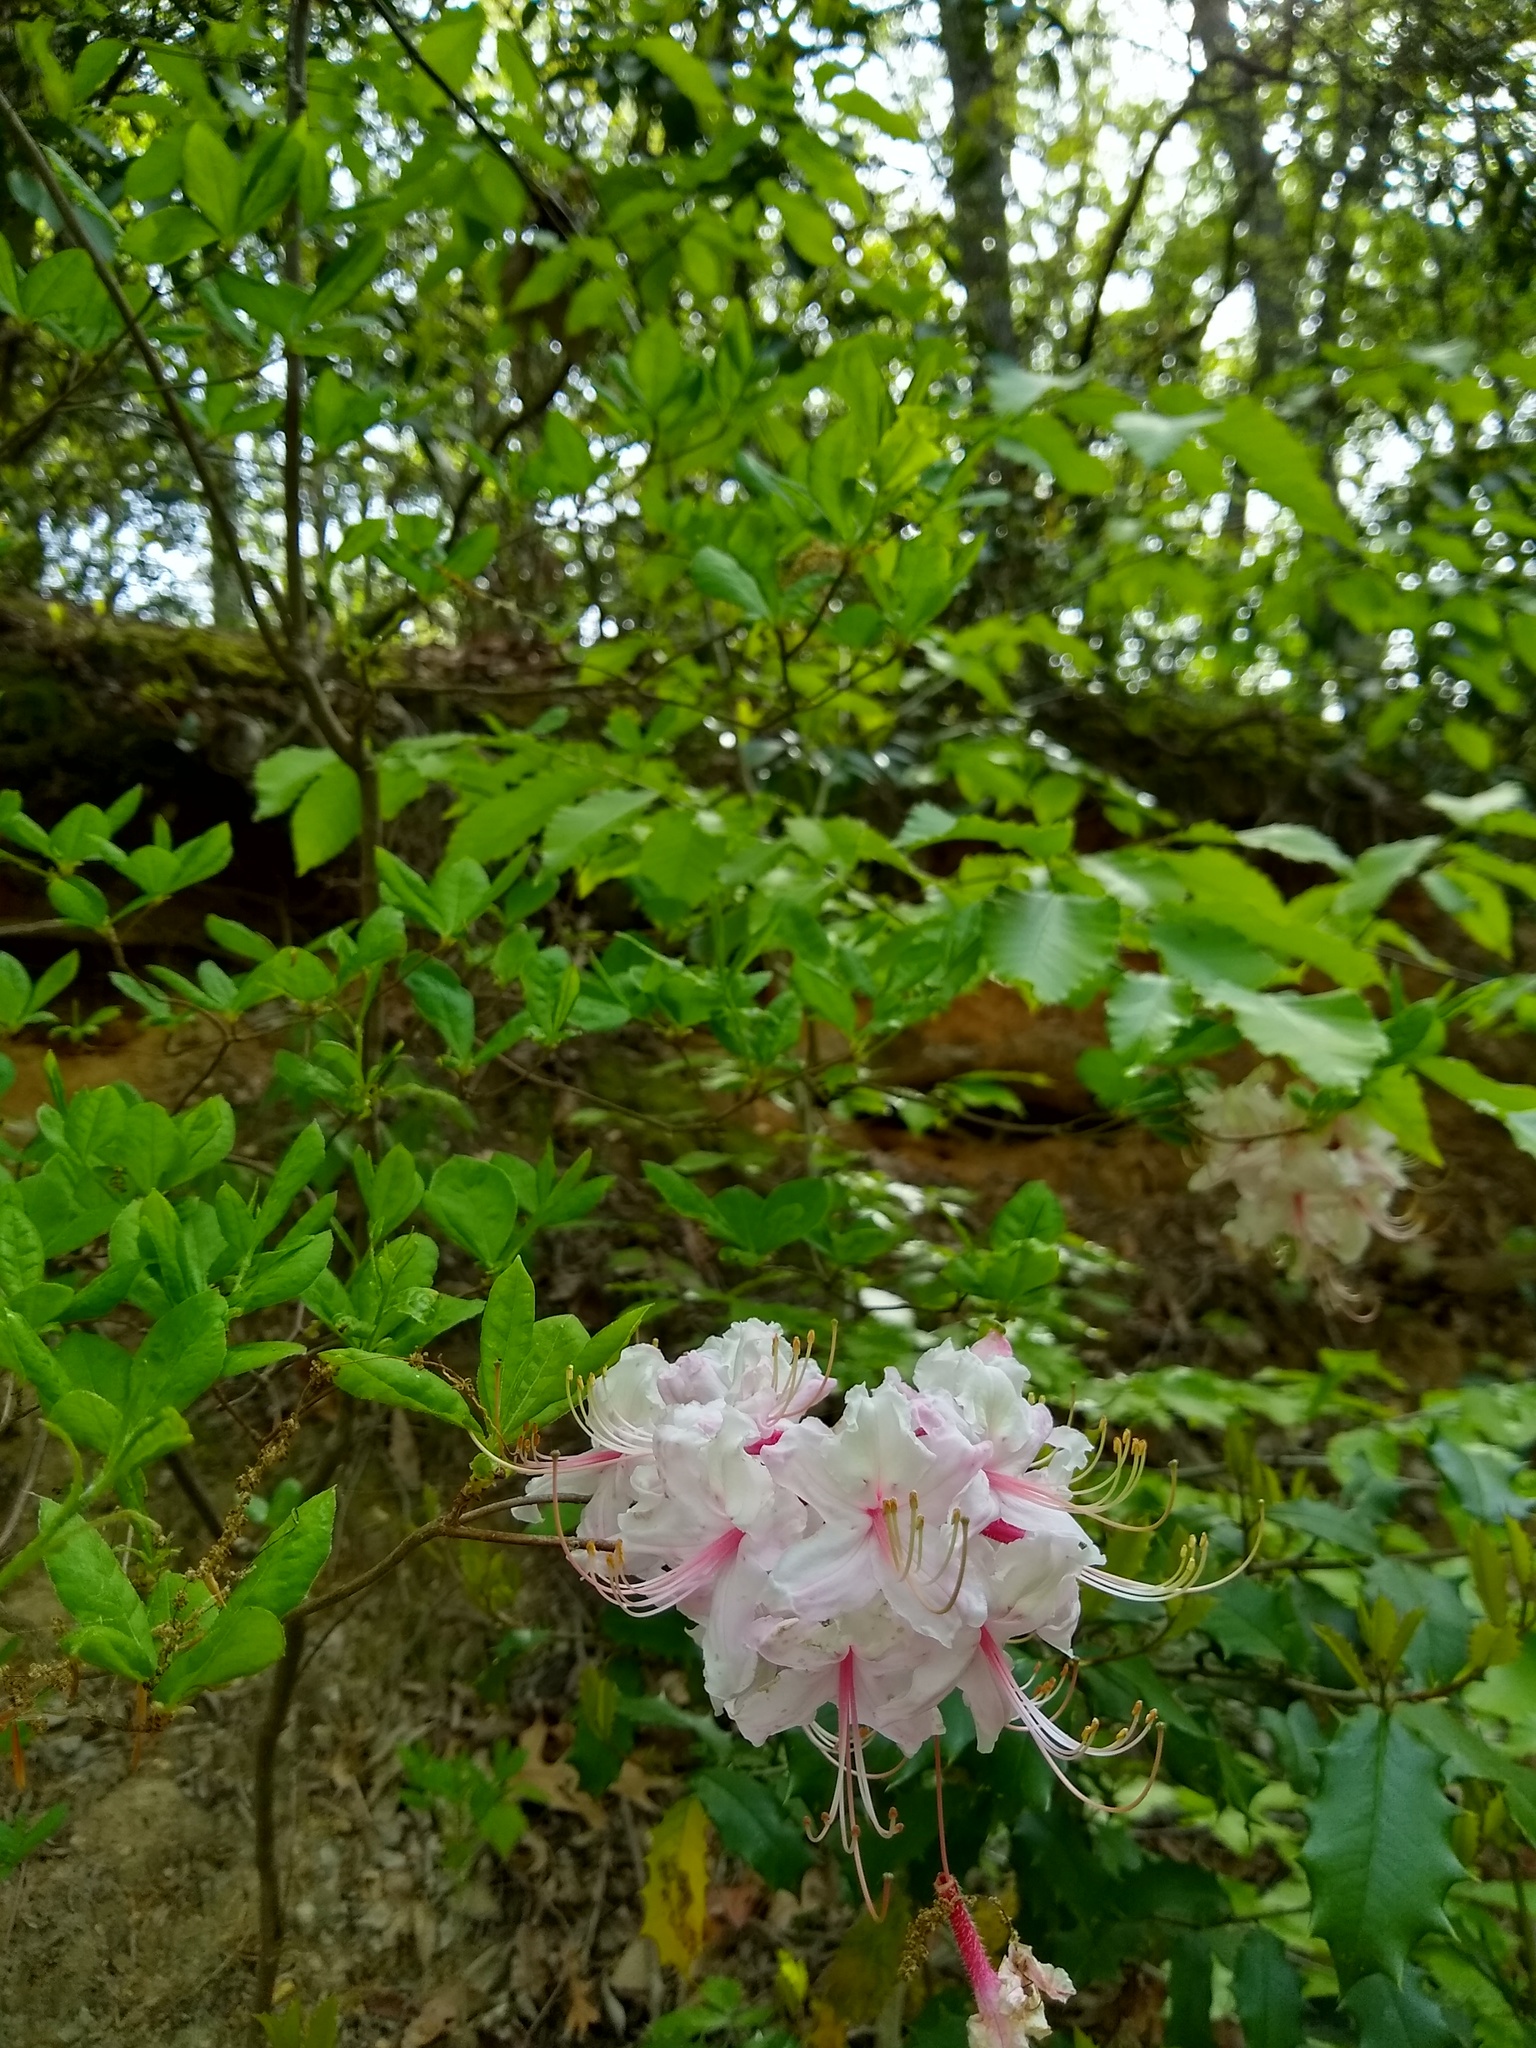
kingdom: Plantae
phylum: Tracheophyta
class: Magnoliopsida
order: Ericales
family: Ericaceae
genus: Rhododendron
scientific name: Rhododendron periclymenoides
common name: Election-pink
